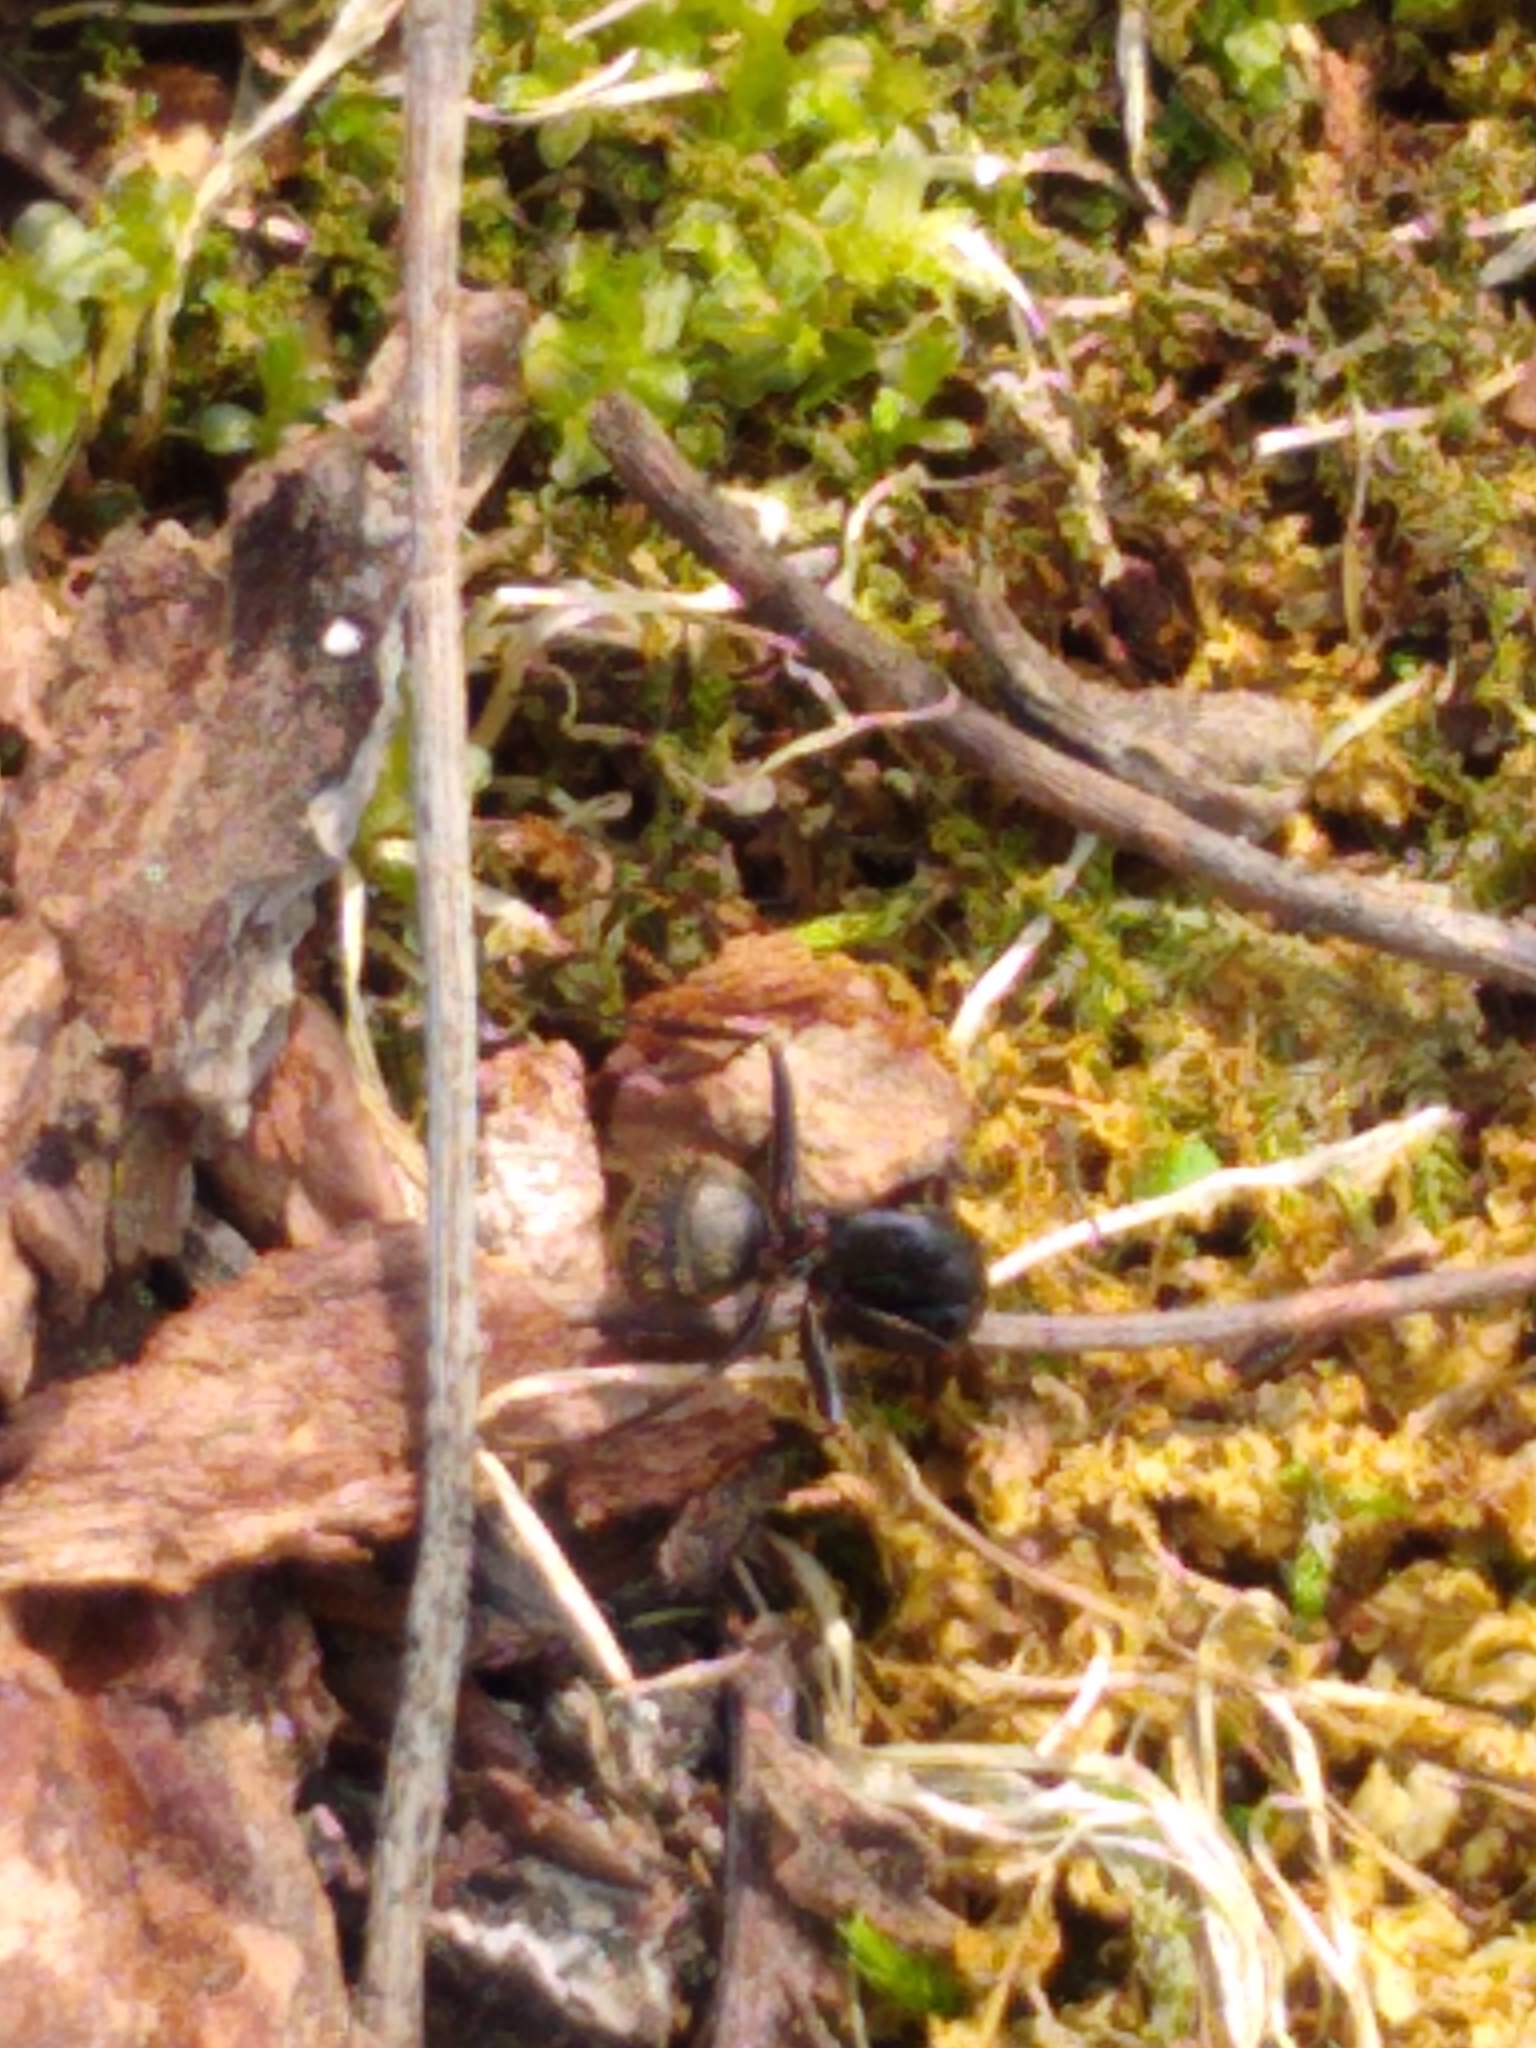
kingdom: Animalia
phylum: Arthropoda
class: Insecta
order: Hymenoptera
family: Formicidae
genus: Camponotus
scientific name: Camponotus pennsylvanicus
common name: Black carpenter ant
